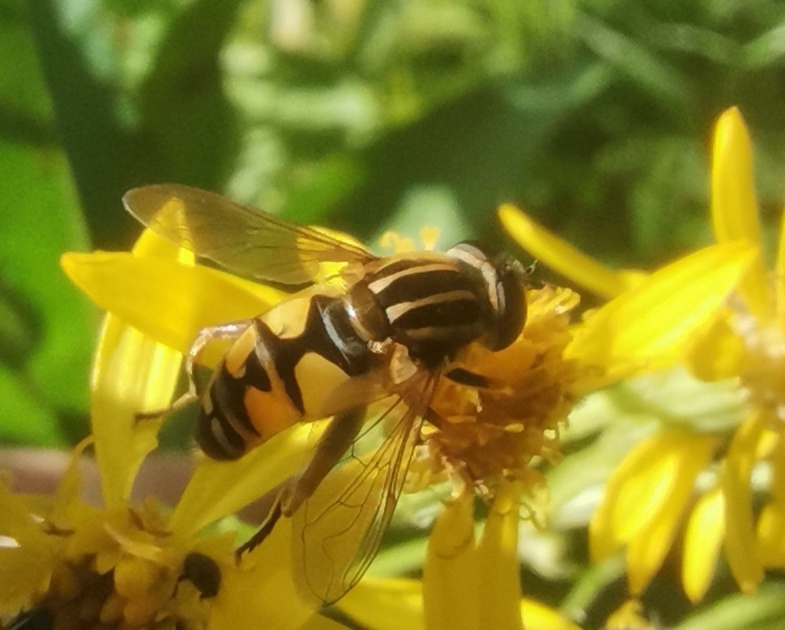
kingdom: Animalia
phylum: Arthropoda
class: Insecta
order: Diptera
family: Syrphidae
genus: Helophilus
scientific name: Helophilus pendulus
